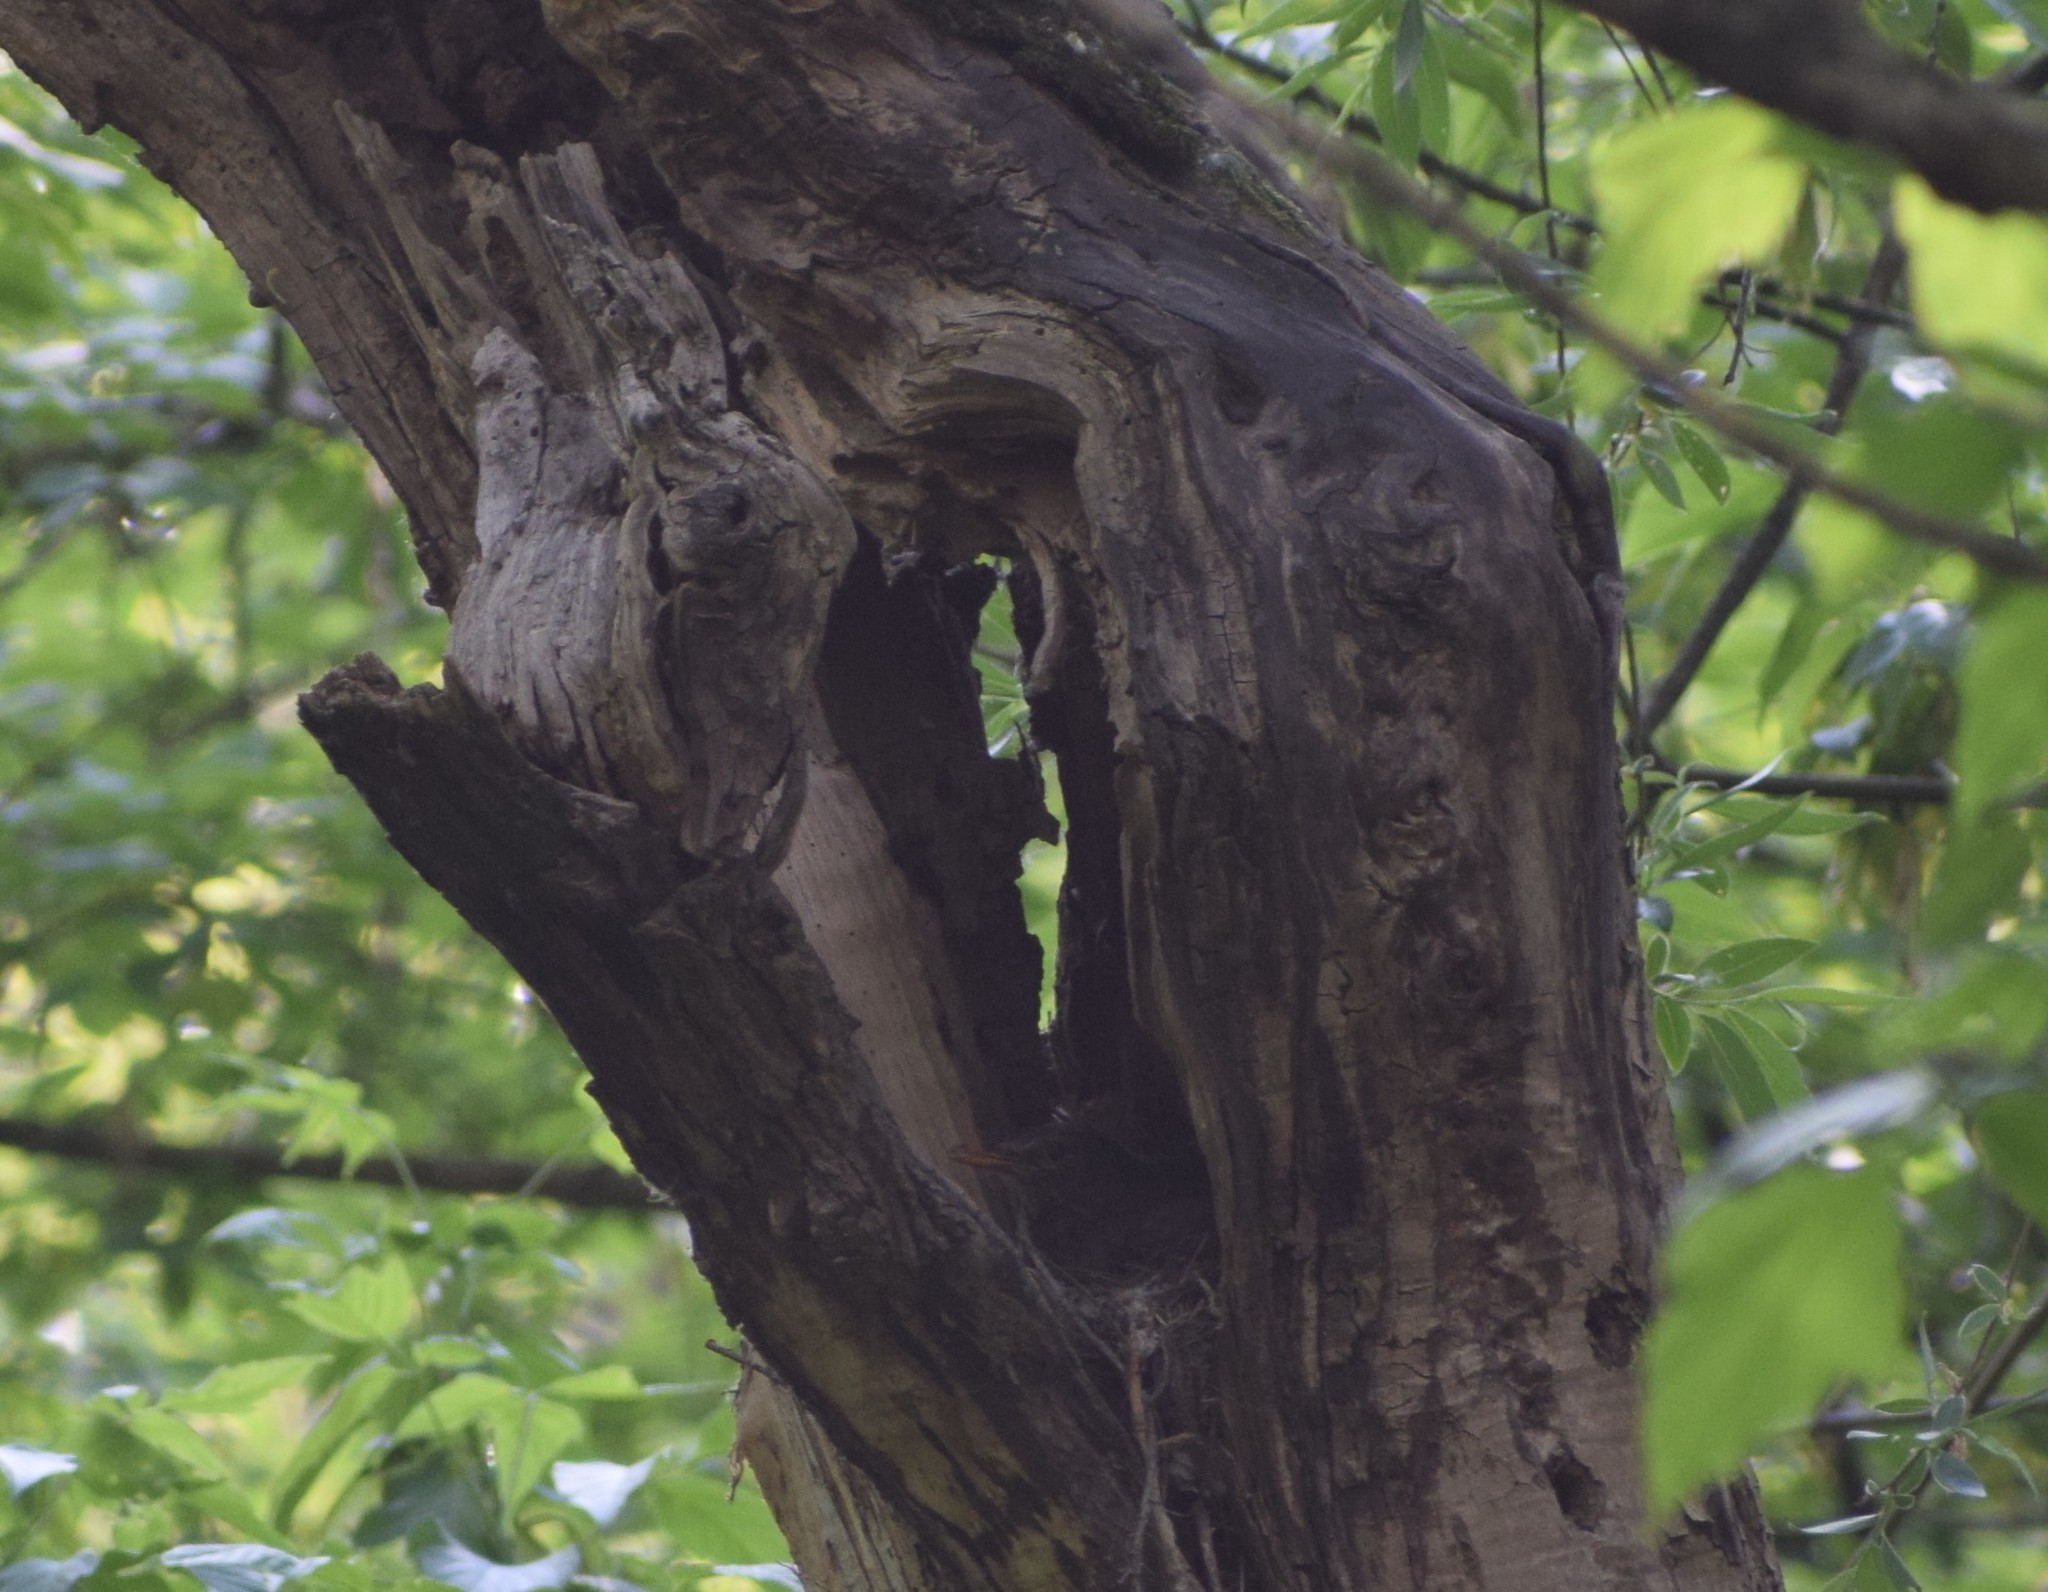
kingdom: Animalia
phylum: Chordata
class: Aves
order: Passeriformes
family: Turdidae
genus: Turdus
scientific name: Turdus merula
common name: Common blackbird
